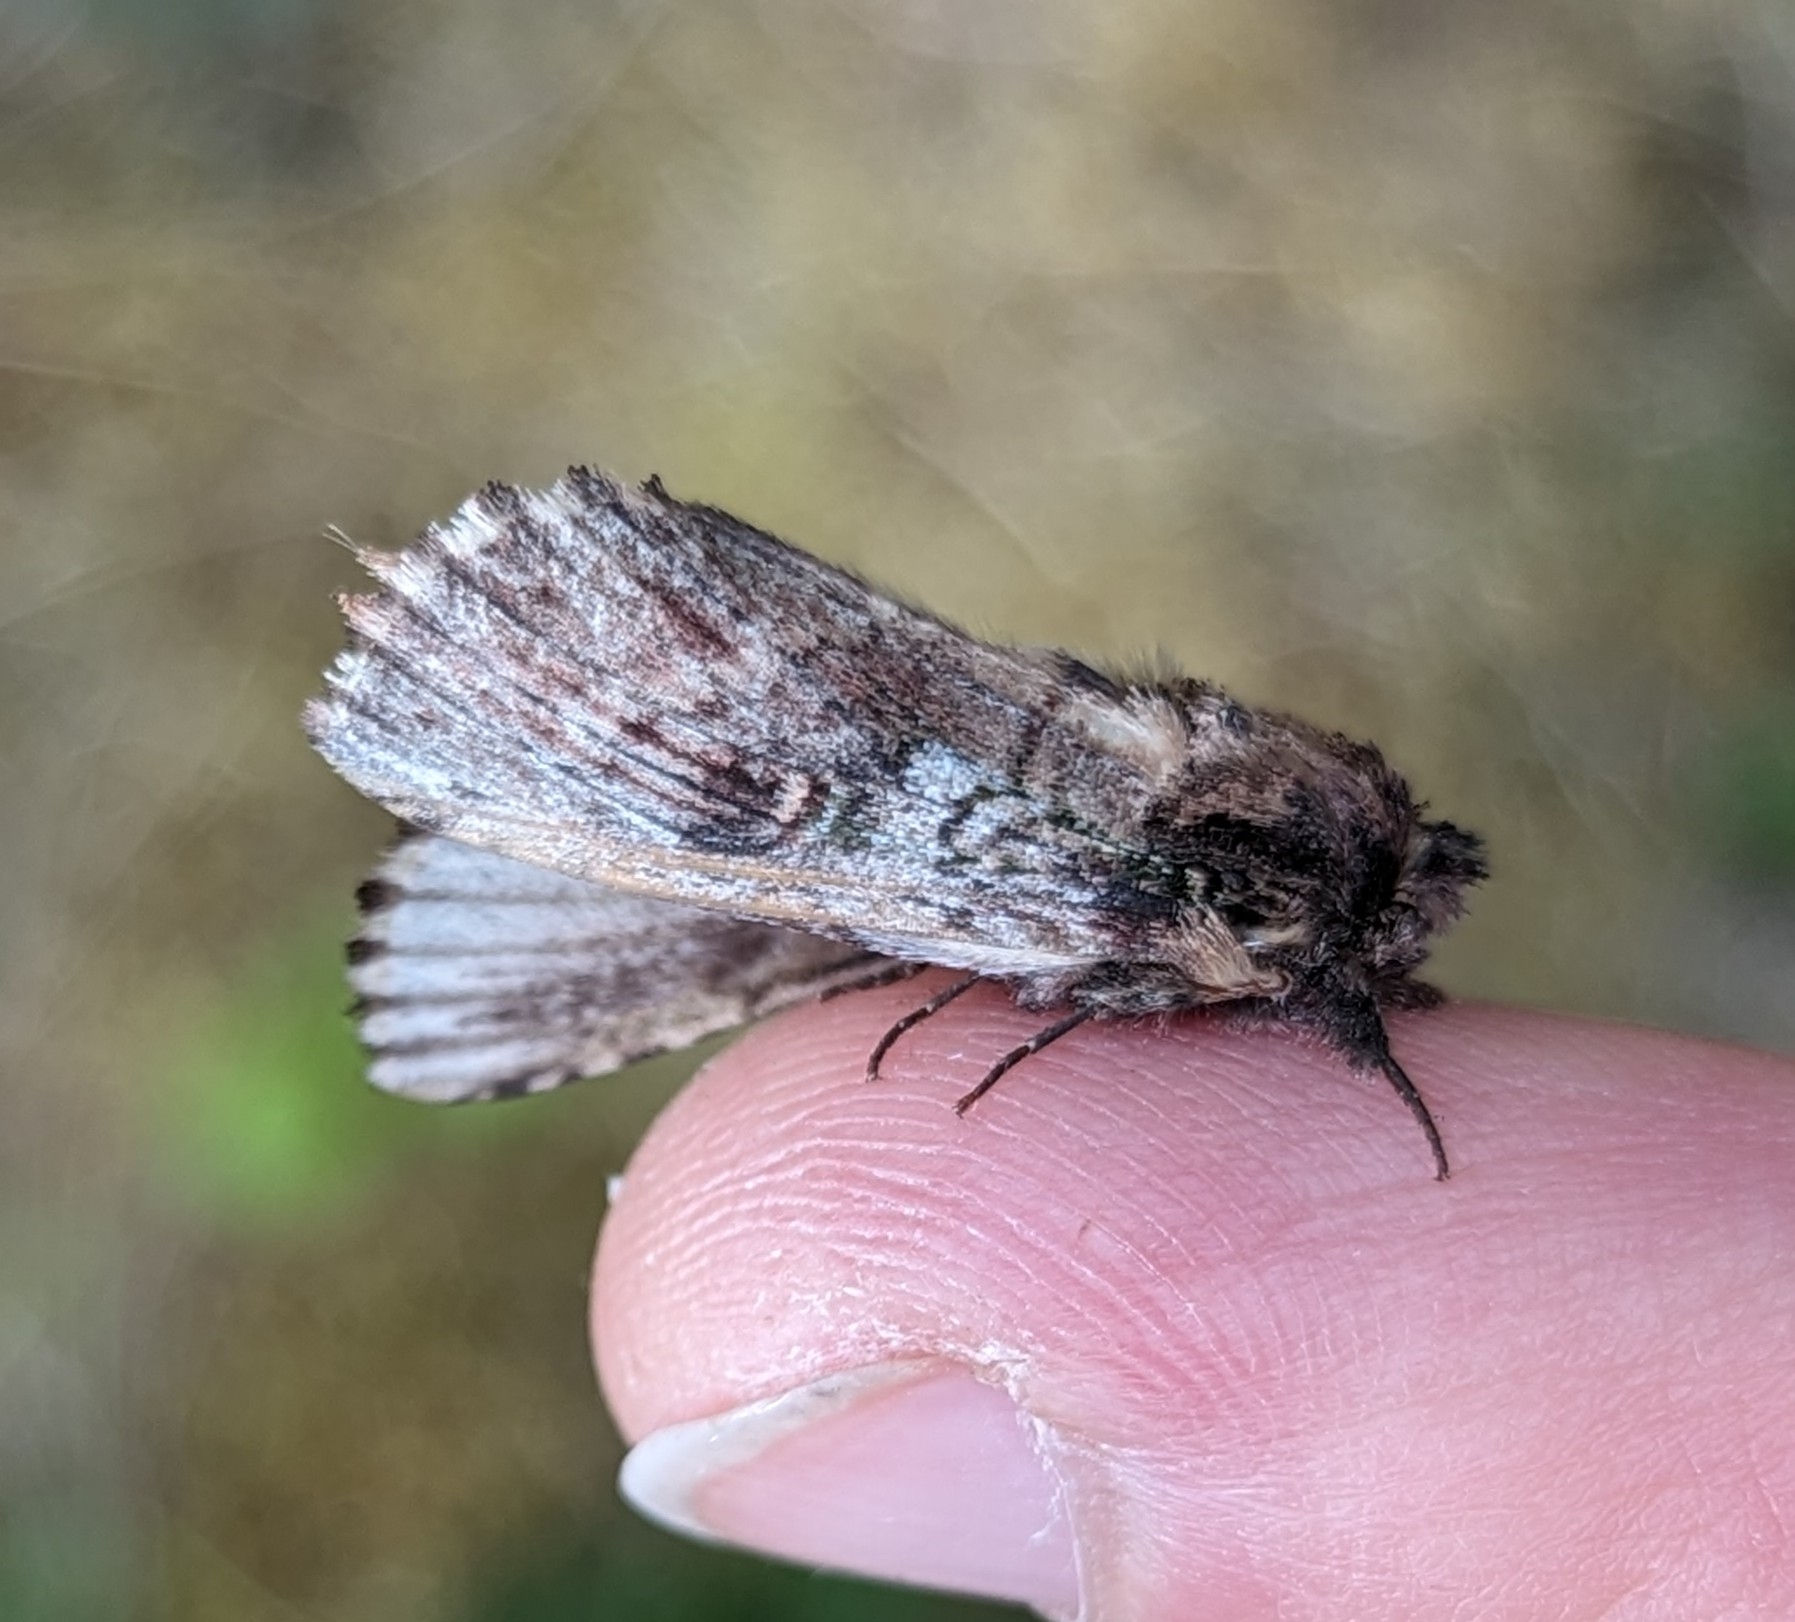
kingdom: Animalia
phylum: Arthropoda
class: Insecta
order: Lepidoptera
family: Notodontidae
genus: Schizura
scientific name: Schizura ipomaeae
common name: Morning-glory prominent
